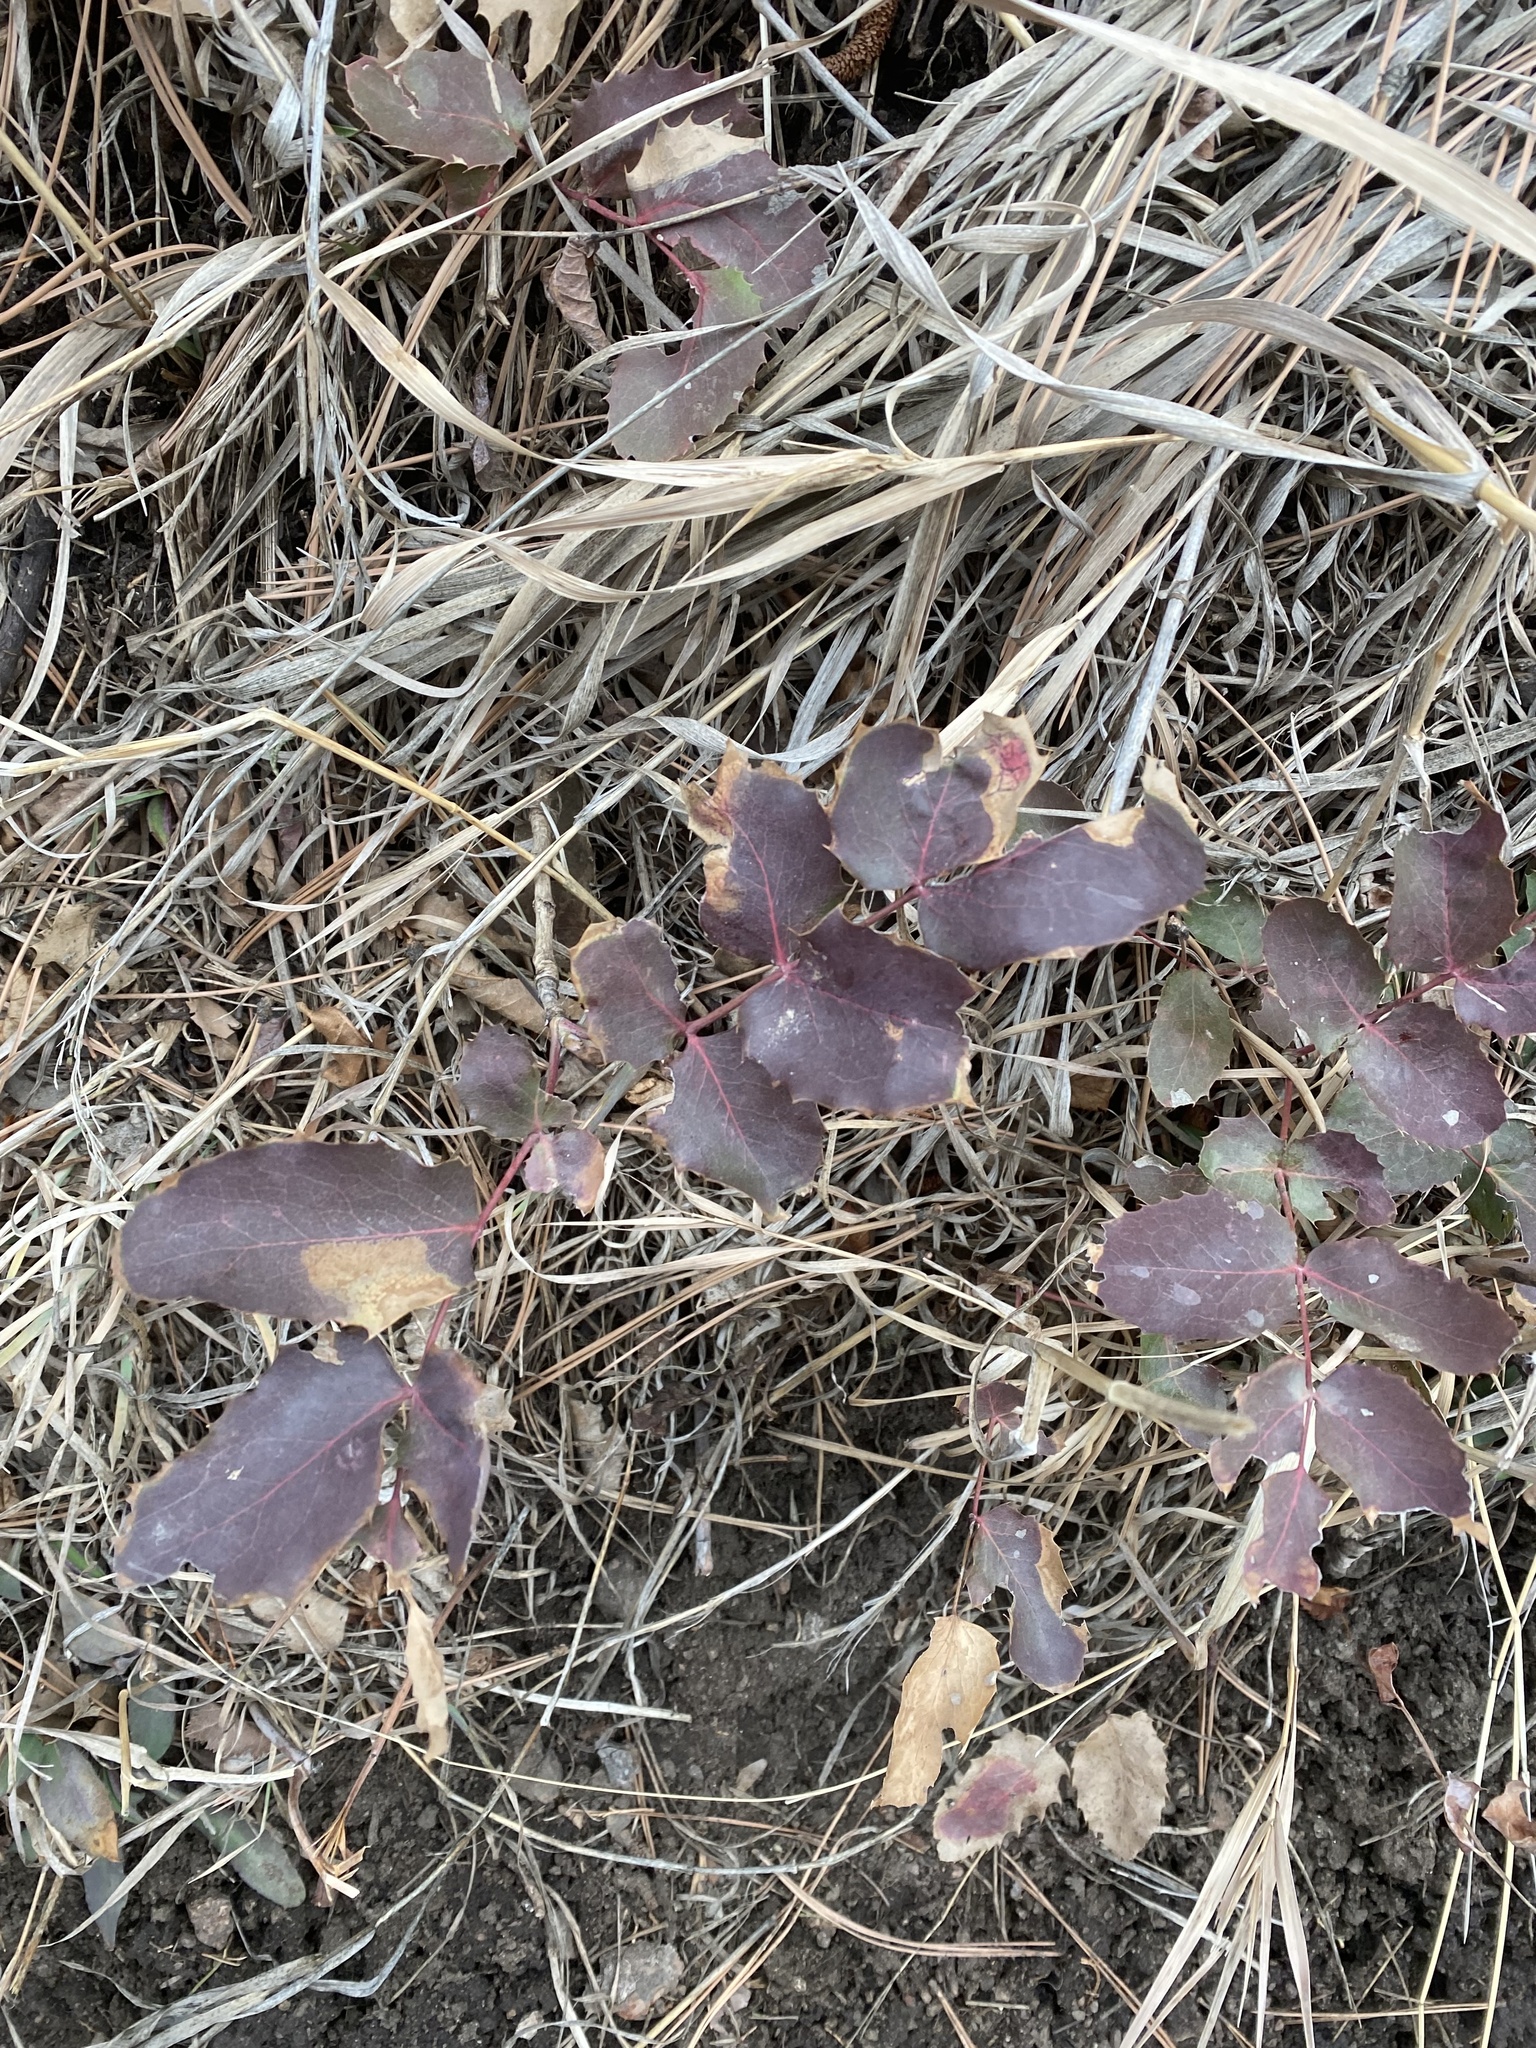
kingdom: Plantae
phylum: Tracheophyta
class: Magnoliopsida
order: Ranunculales
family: Berberidaceae
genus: Mahonia
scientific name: Mahonia repens
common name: Creeping oregon-grape
